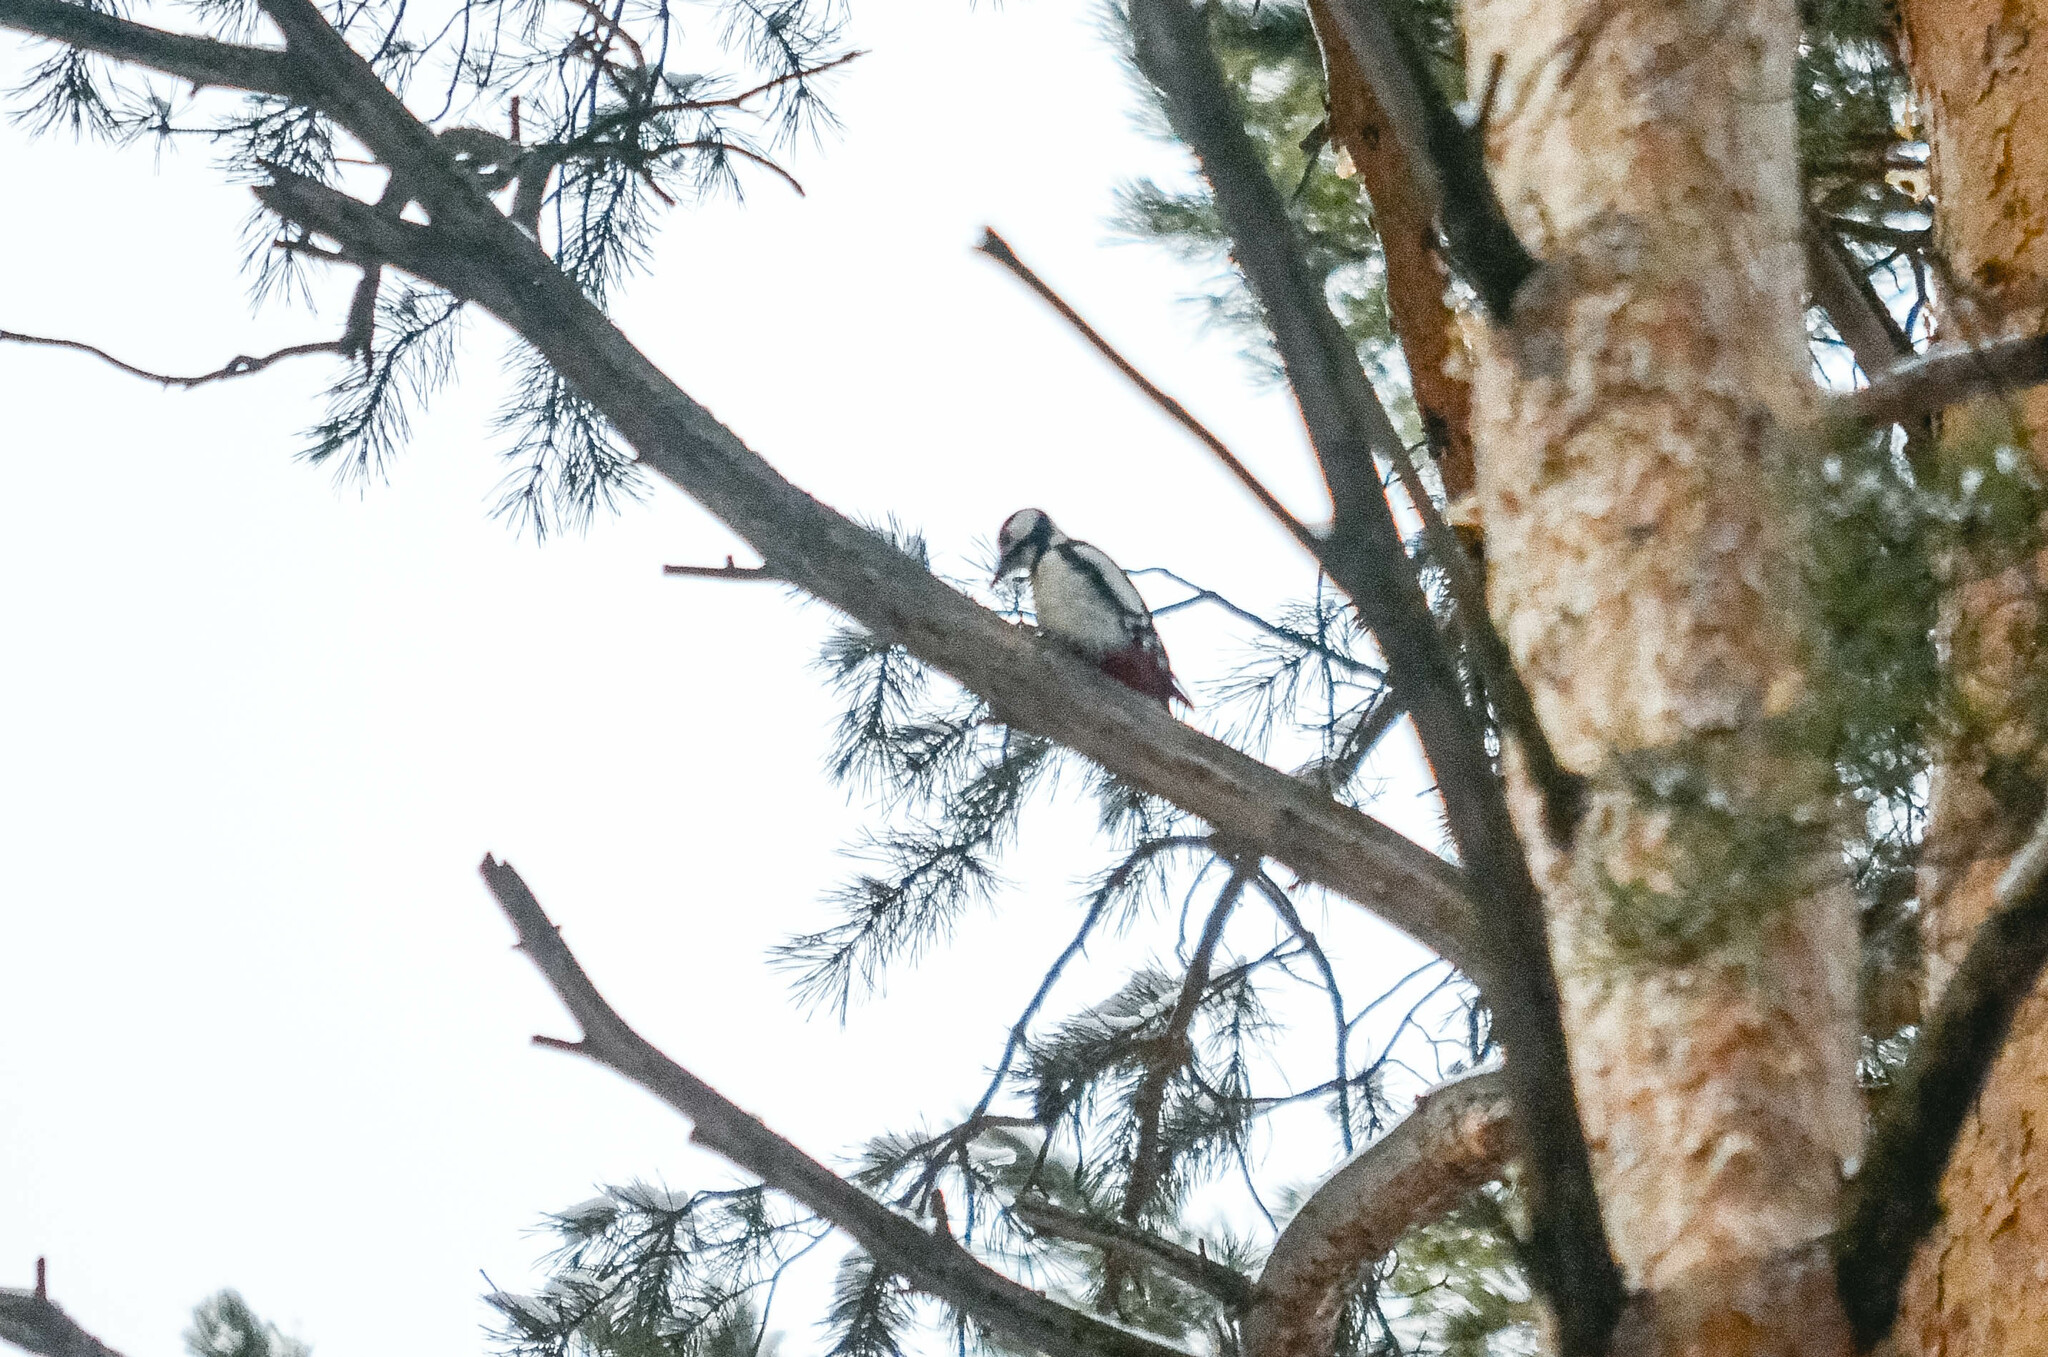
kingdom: Animalia
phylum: Chordata
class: Aves
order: Piciformes
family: Picidae
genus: Dendrocopos
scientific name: Dendrocopos major
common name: Great spotted woodpecker
